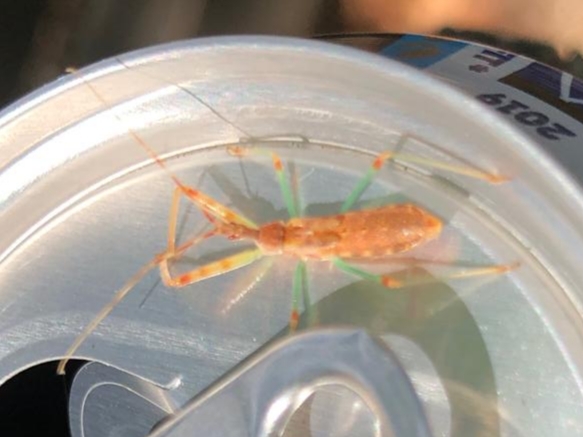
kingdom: Animalia
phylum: Arthropoda
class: Insecta
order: Hemiptera
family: Reduviidae
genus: Nagusta
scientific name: Nagusta goedelii
